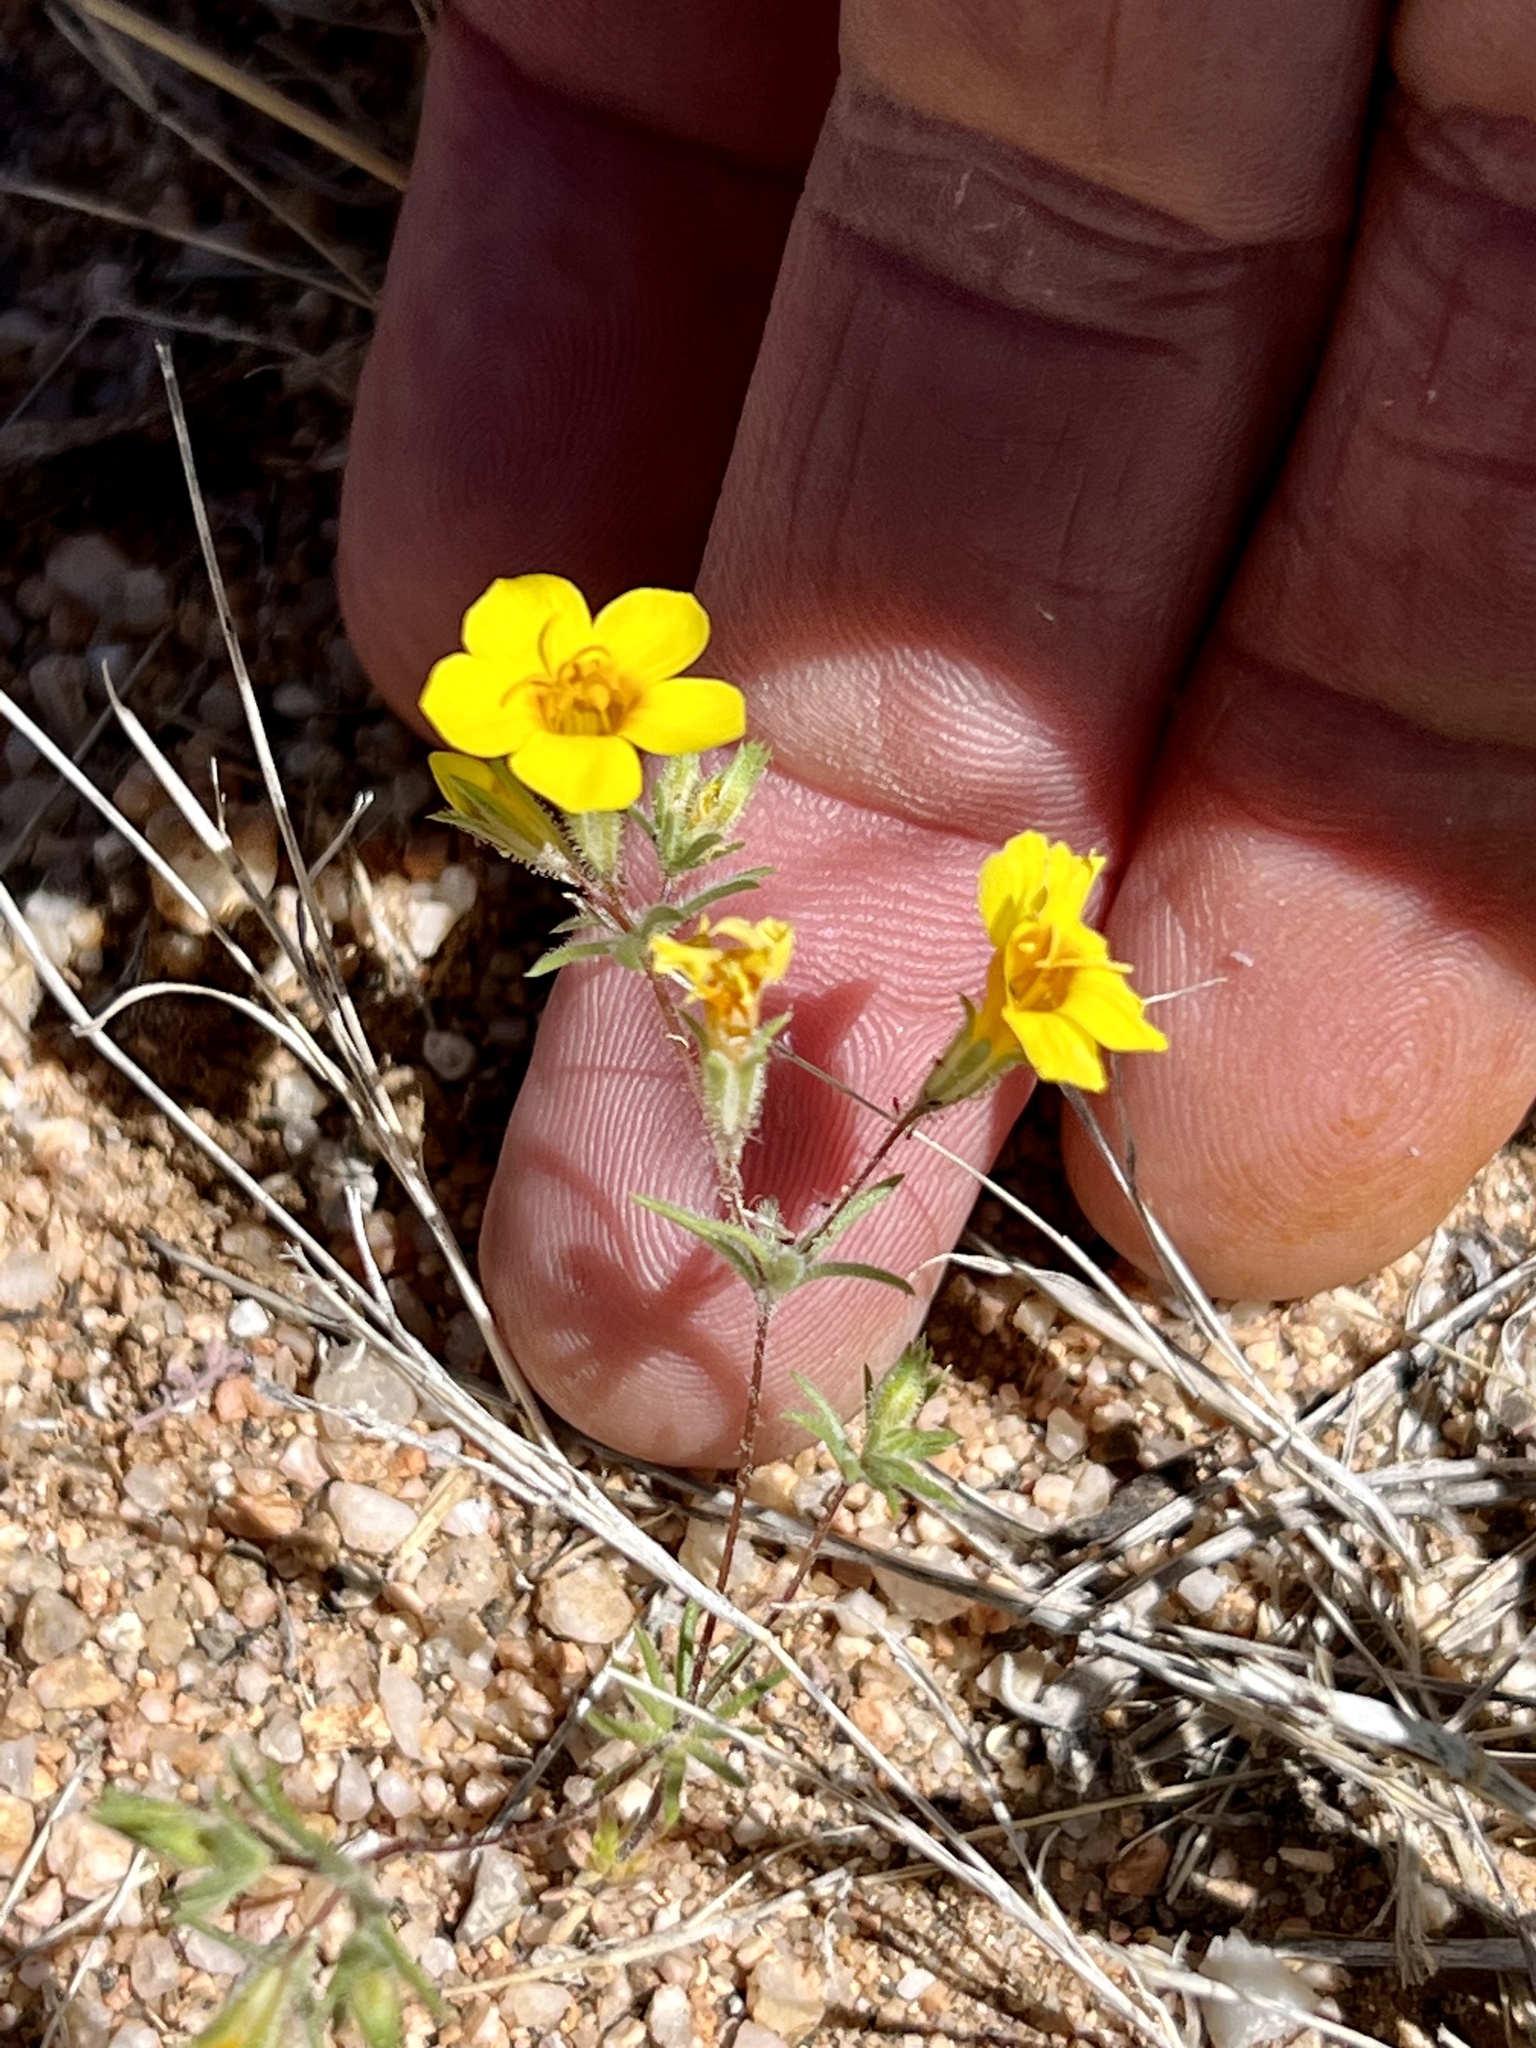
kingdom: Plantae
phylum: Tracheophyta
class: Magnoliopsida
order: Ericales
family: Polemoniaceae
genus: Leptosiphon
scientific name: Leptosiphon chrysanthus
